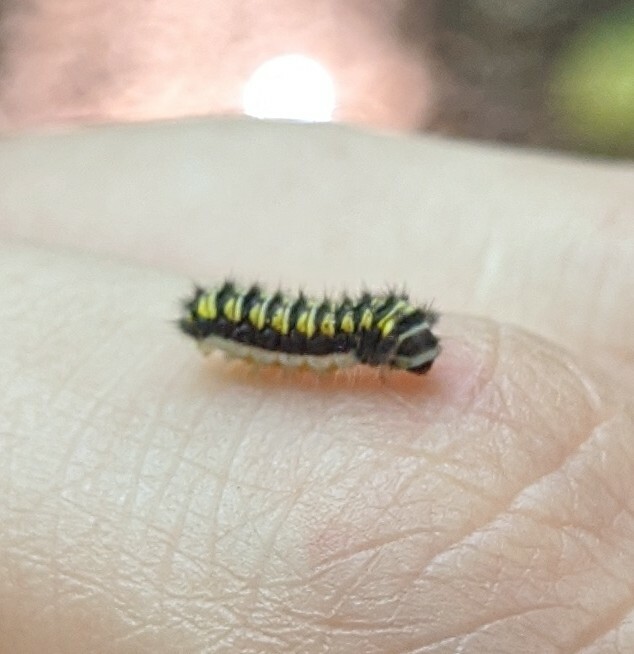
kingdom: Animalia
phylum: Arthropoda
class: Insecta
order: Lepidoptera
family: Zygaenidae
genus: Harrisina
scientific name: Harrisina americana
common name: Grapeleaf skeletonizer moth
